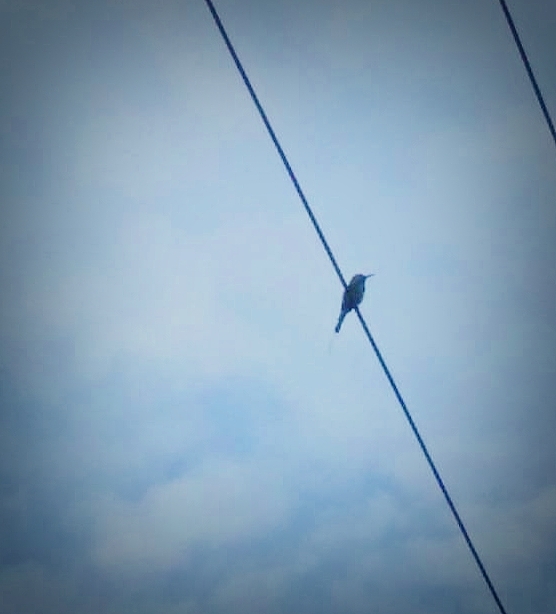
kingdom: Animalia
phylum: Chordata
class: Aves
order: Coraciiformes
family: Meropidae
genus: Merops
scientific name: Merops orientalis
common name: Green bee-eater
